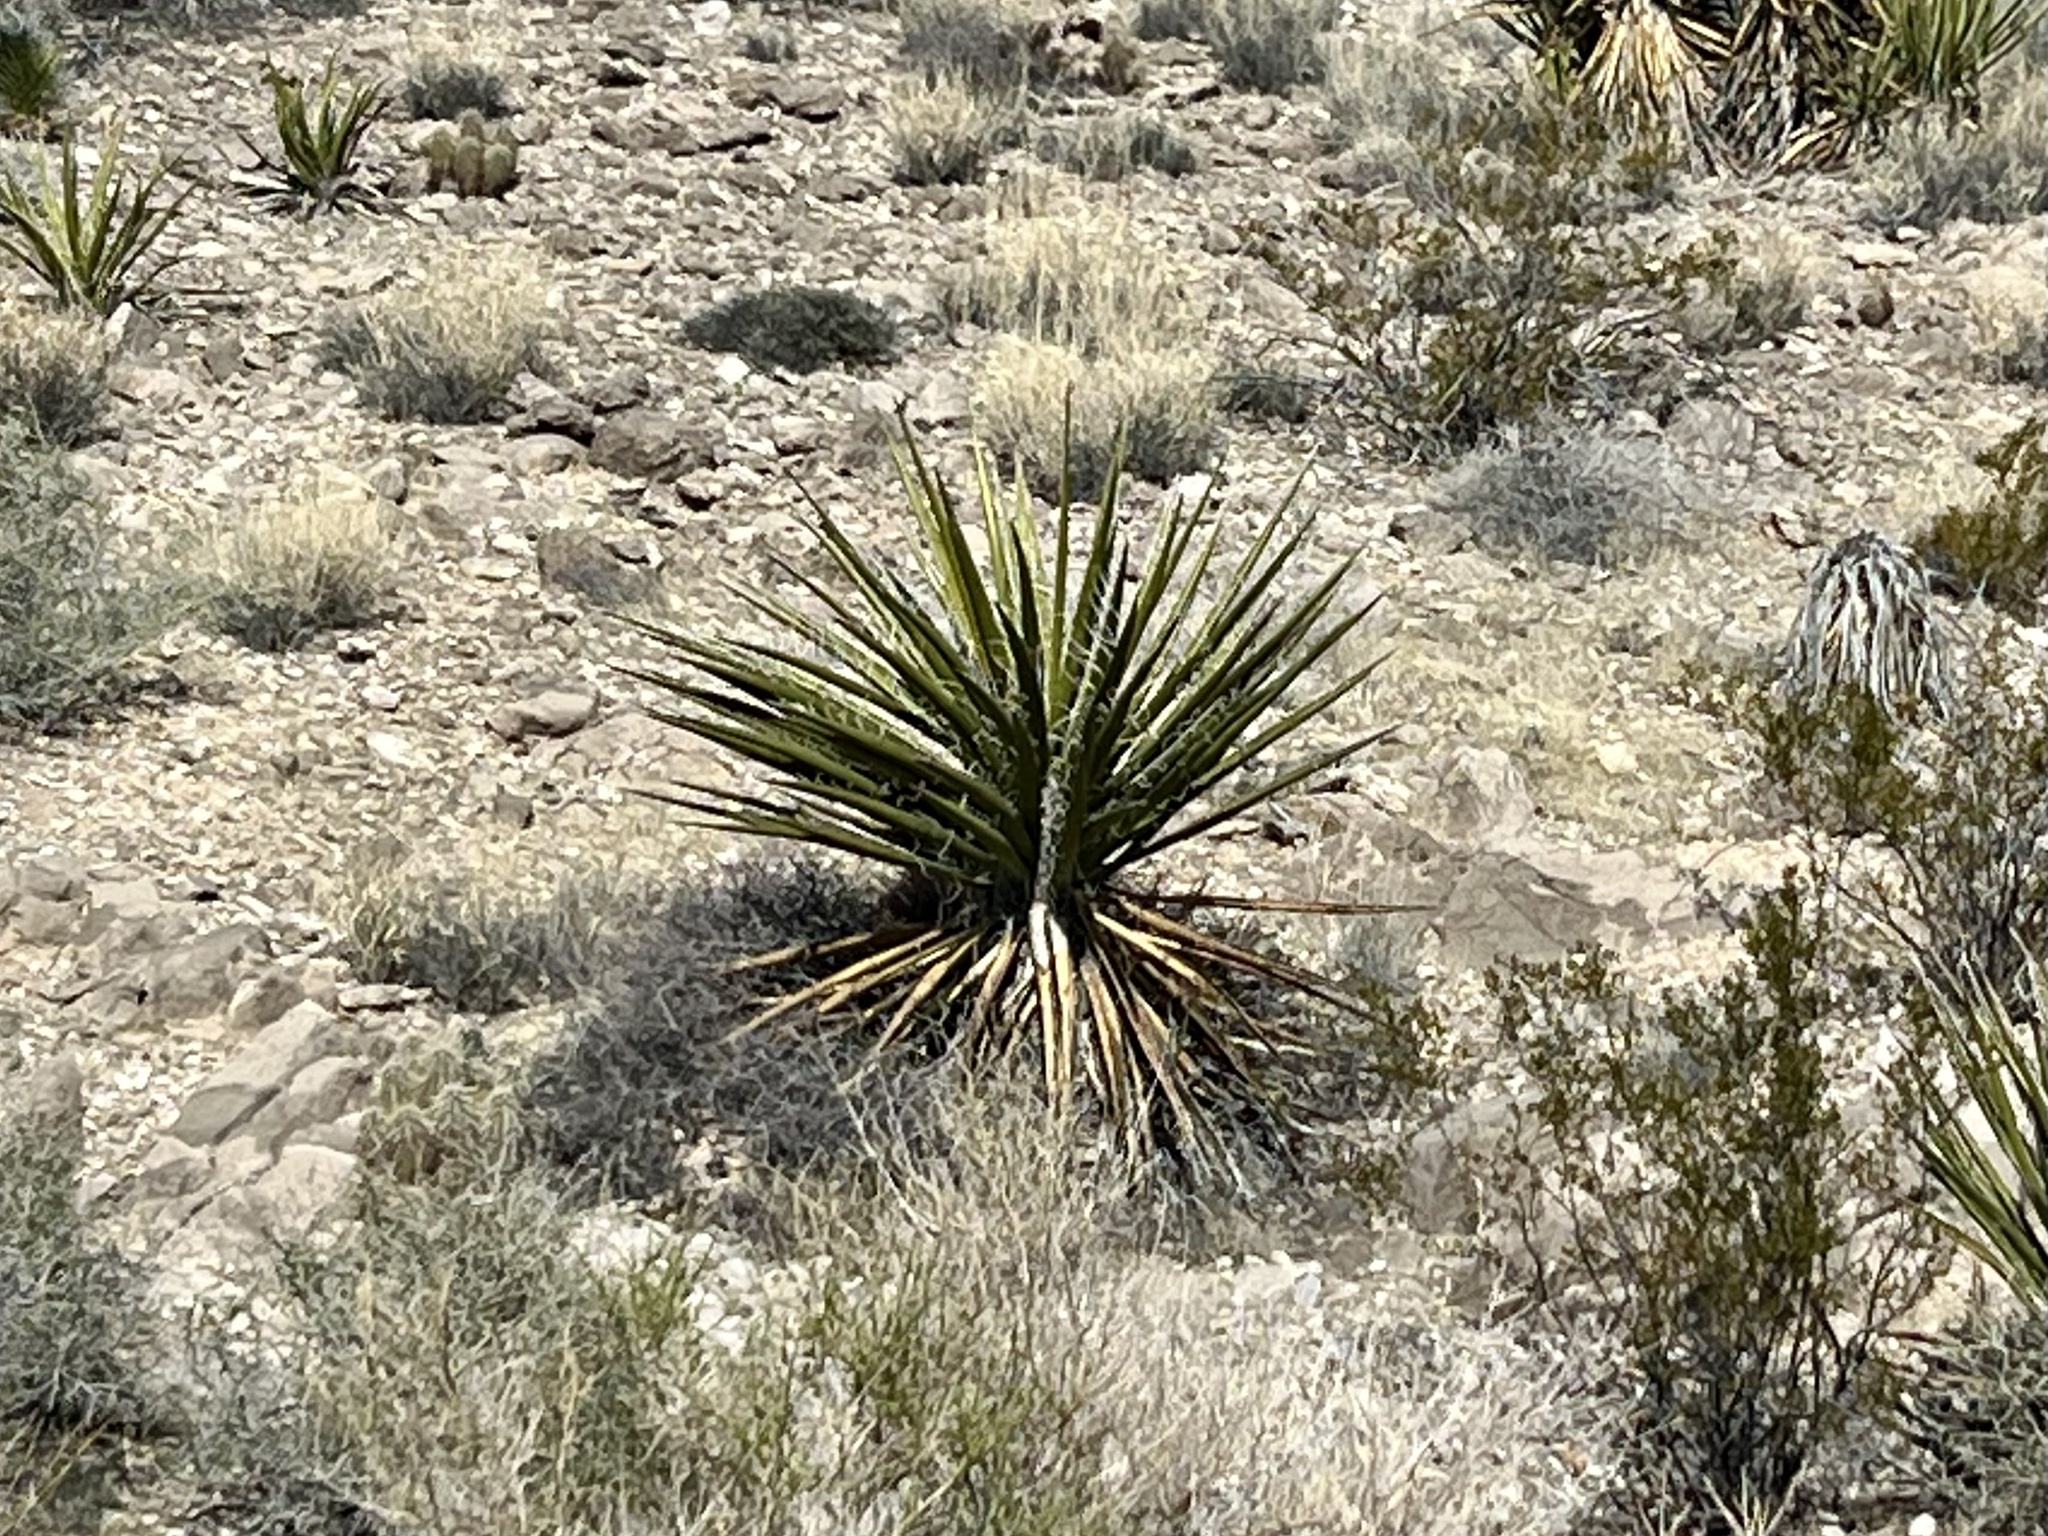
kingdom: Plantae
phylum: Tracheophyta
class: Liliopsida
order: Asparagales
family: Asparagaceae
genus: Yucca
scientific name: Yucca schidigera
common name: Mojave yucca
